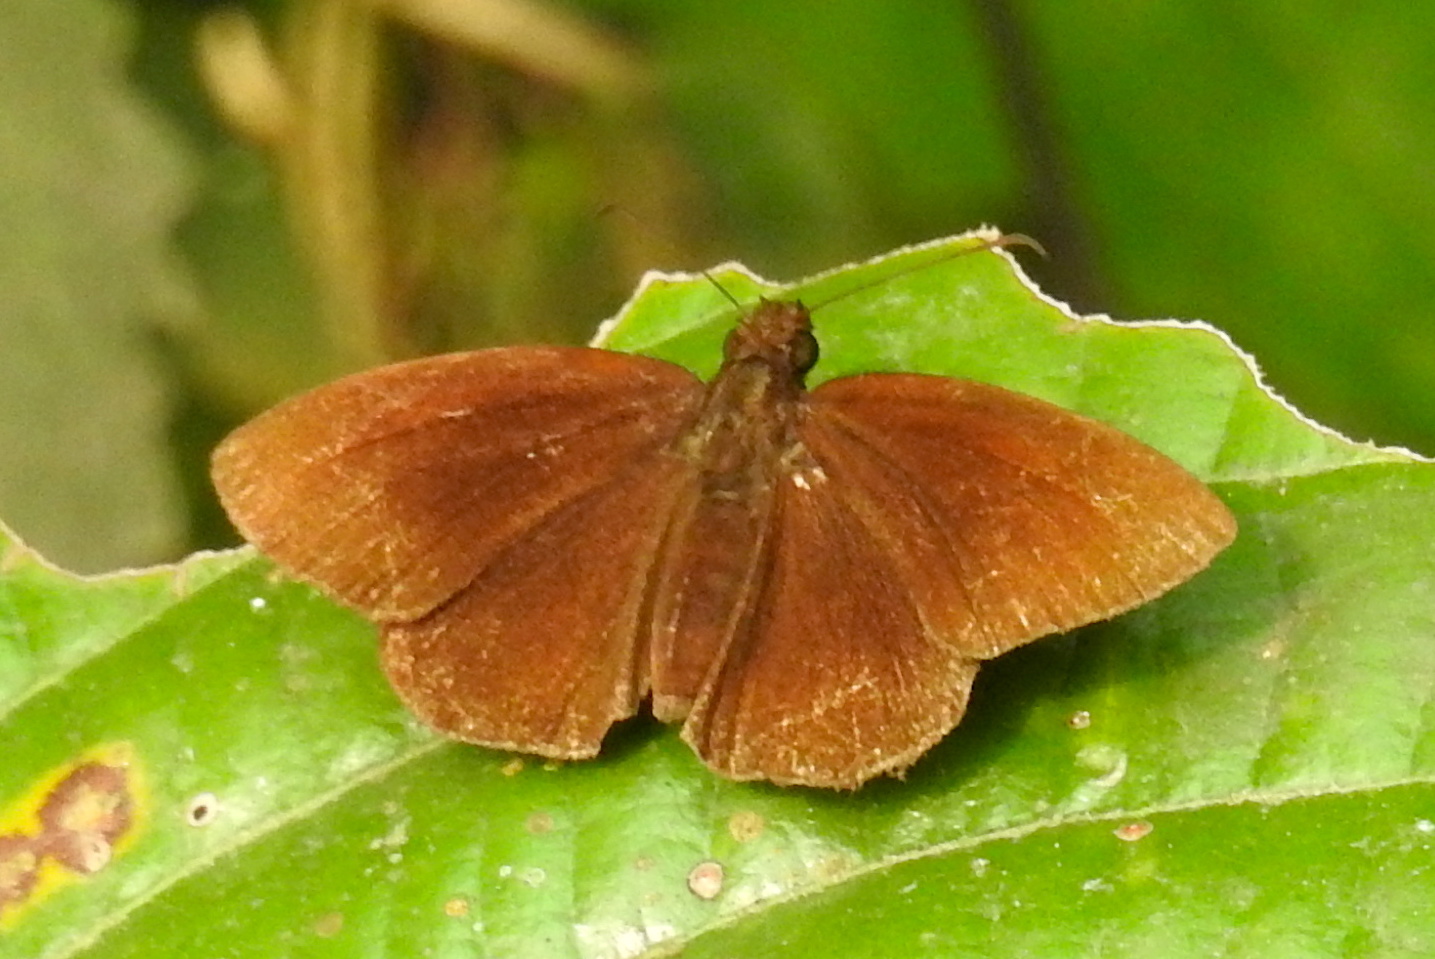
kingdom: Animalia
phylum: Arthropoda
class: Insecta
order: Lepidoptera
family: Hesperiidae
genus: Koruthaialos
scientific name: Koruthaialos butleri
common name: Dark velvet bob
